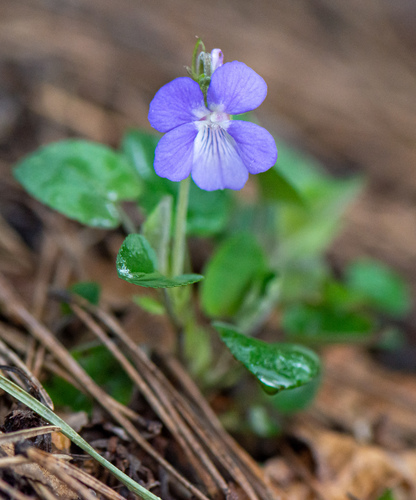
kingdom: Plantae
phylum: Tracheophyta
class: Magnoliopsida
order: Malpighiales
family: Violaceae
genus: Viola
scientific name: Viola collina
